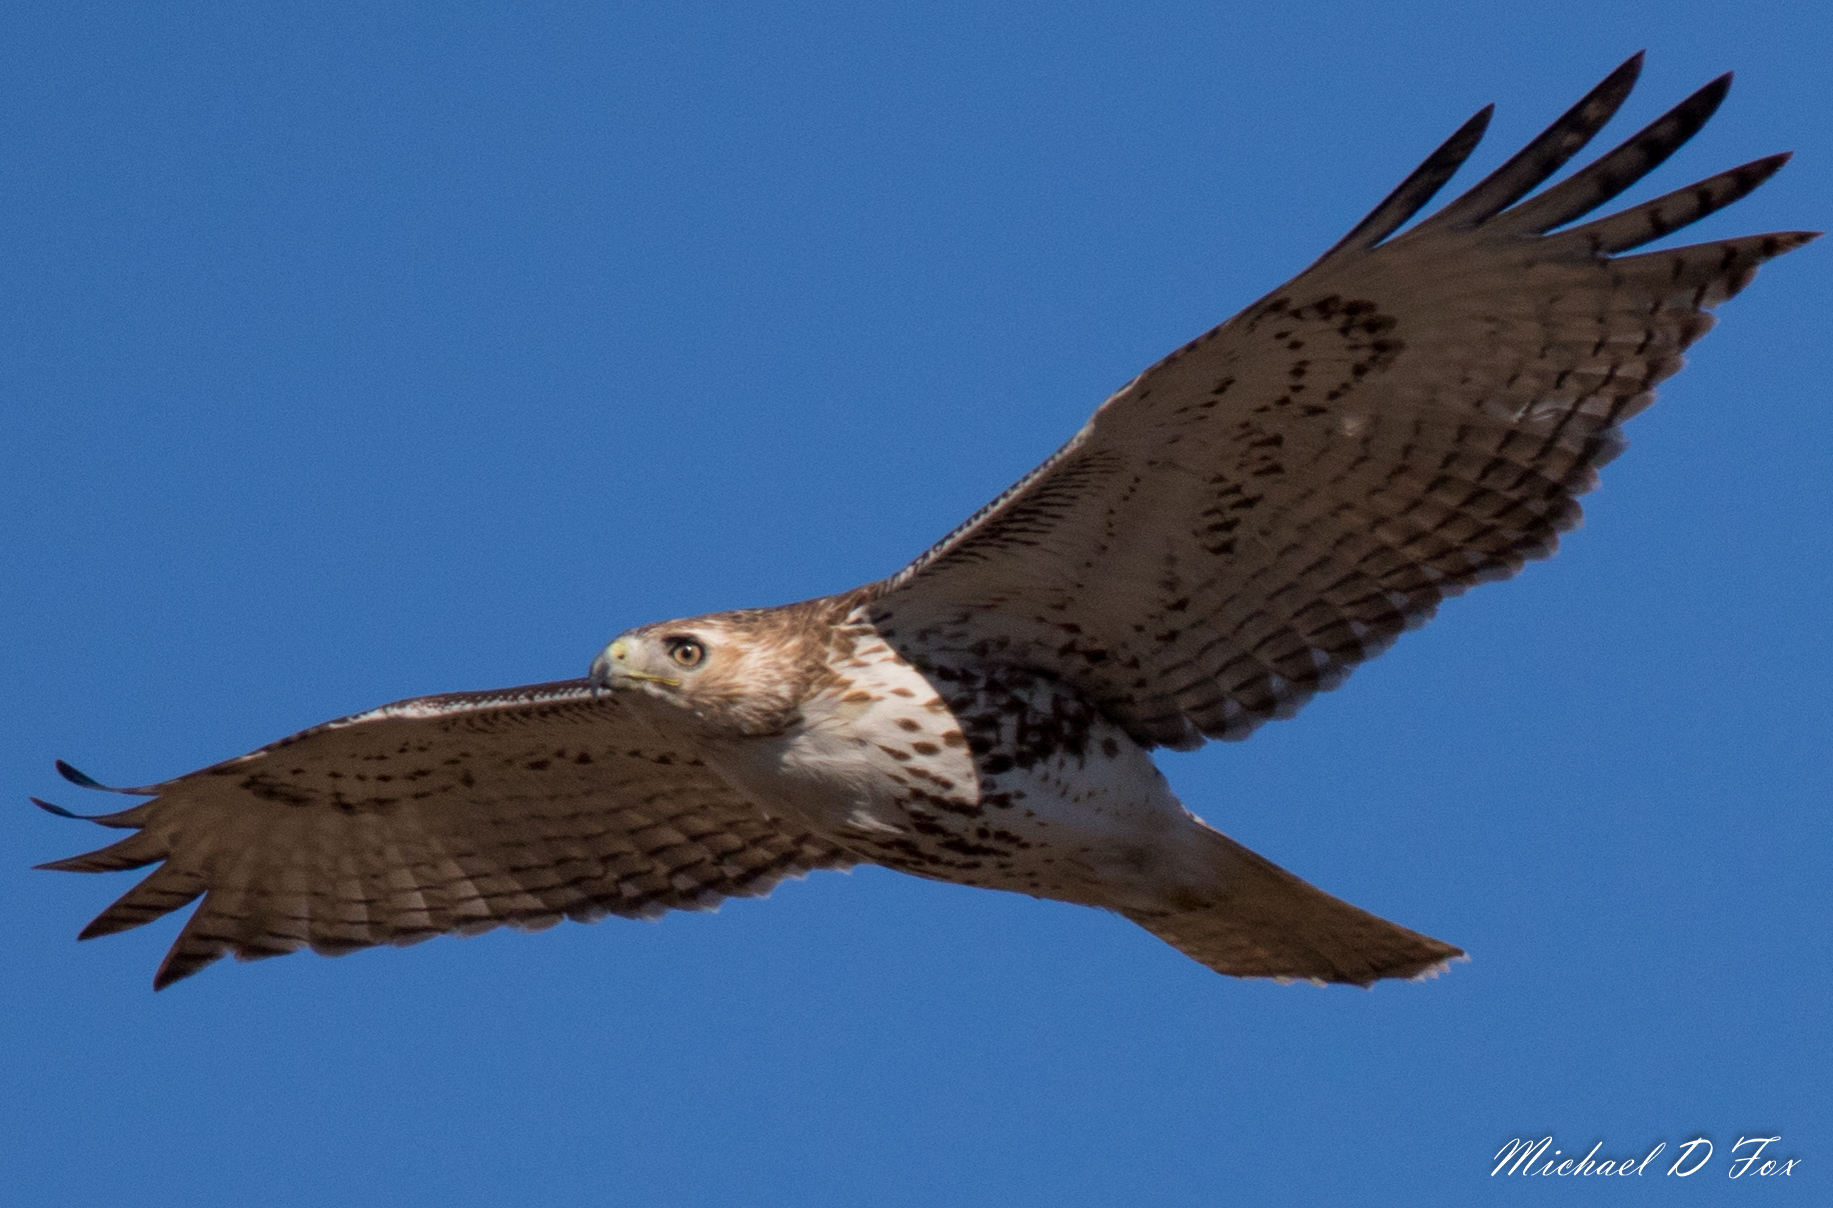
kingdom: Animalia
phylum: Chordata
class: Aves
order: Accipitriformes
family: Accipitridae
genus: Buteo
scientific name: Buteo jamaicensis
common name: Red-tailed hawk
